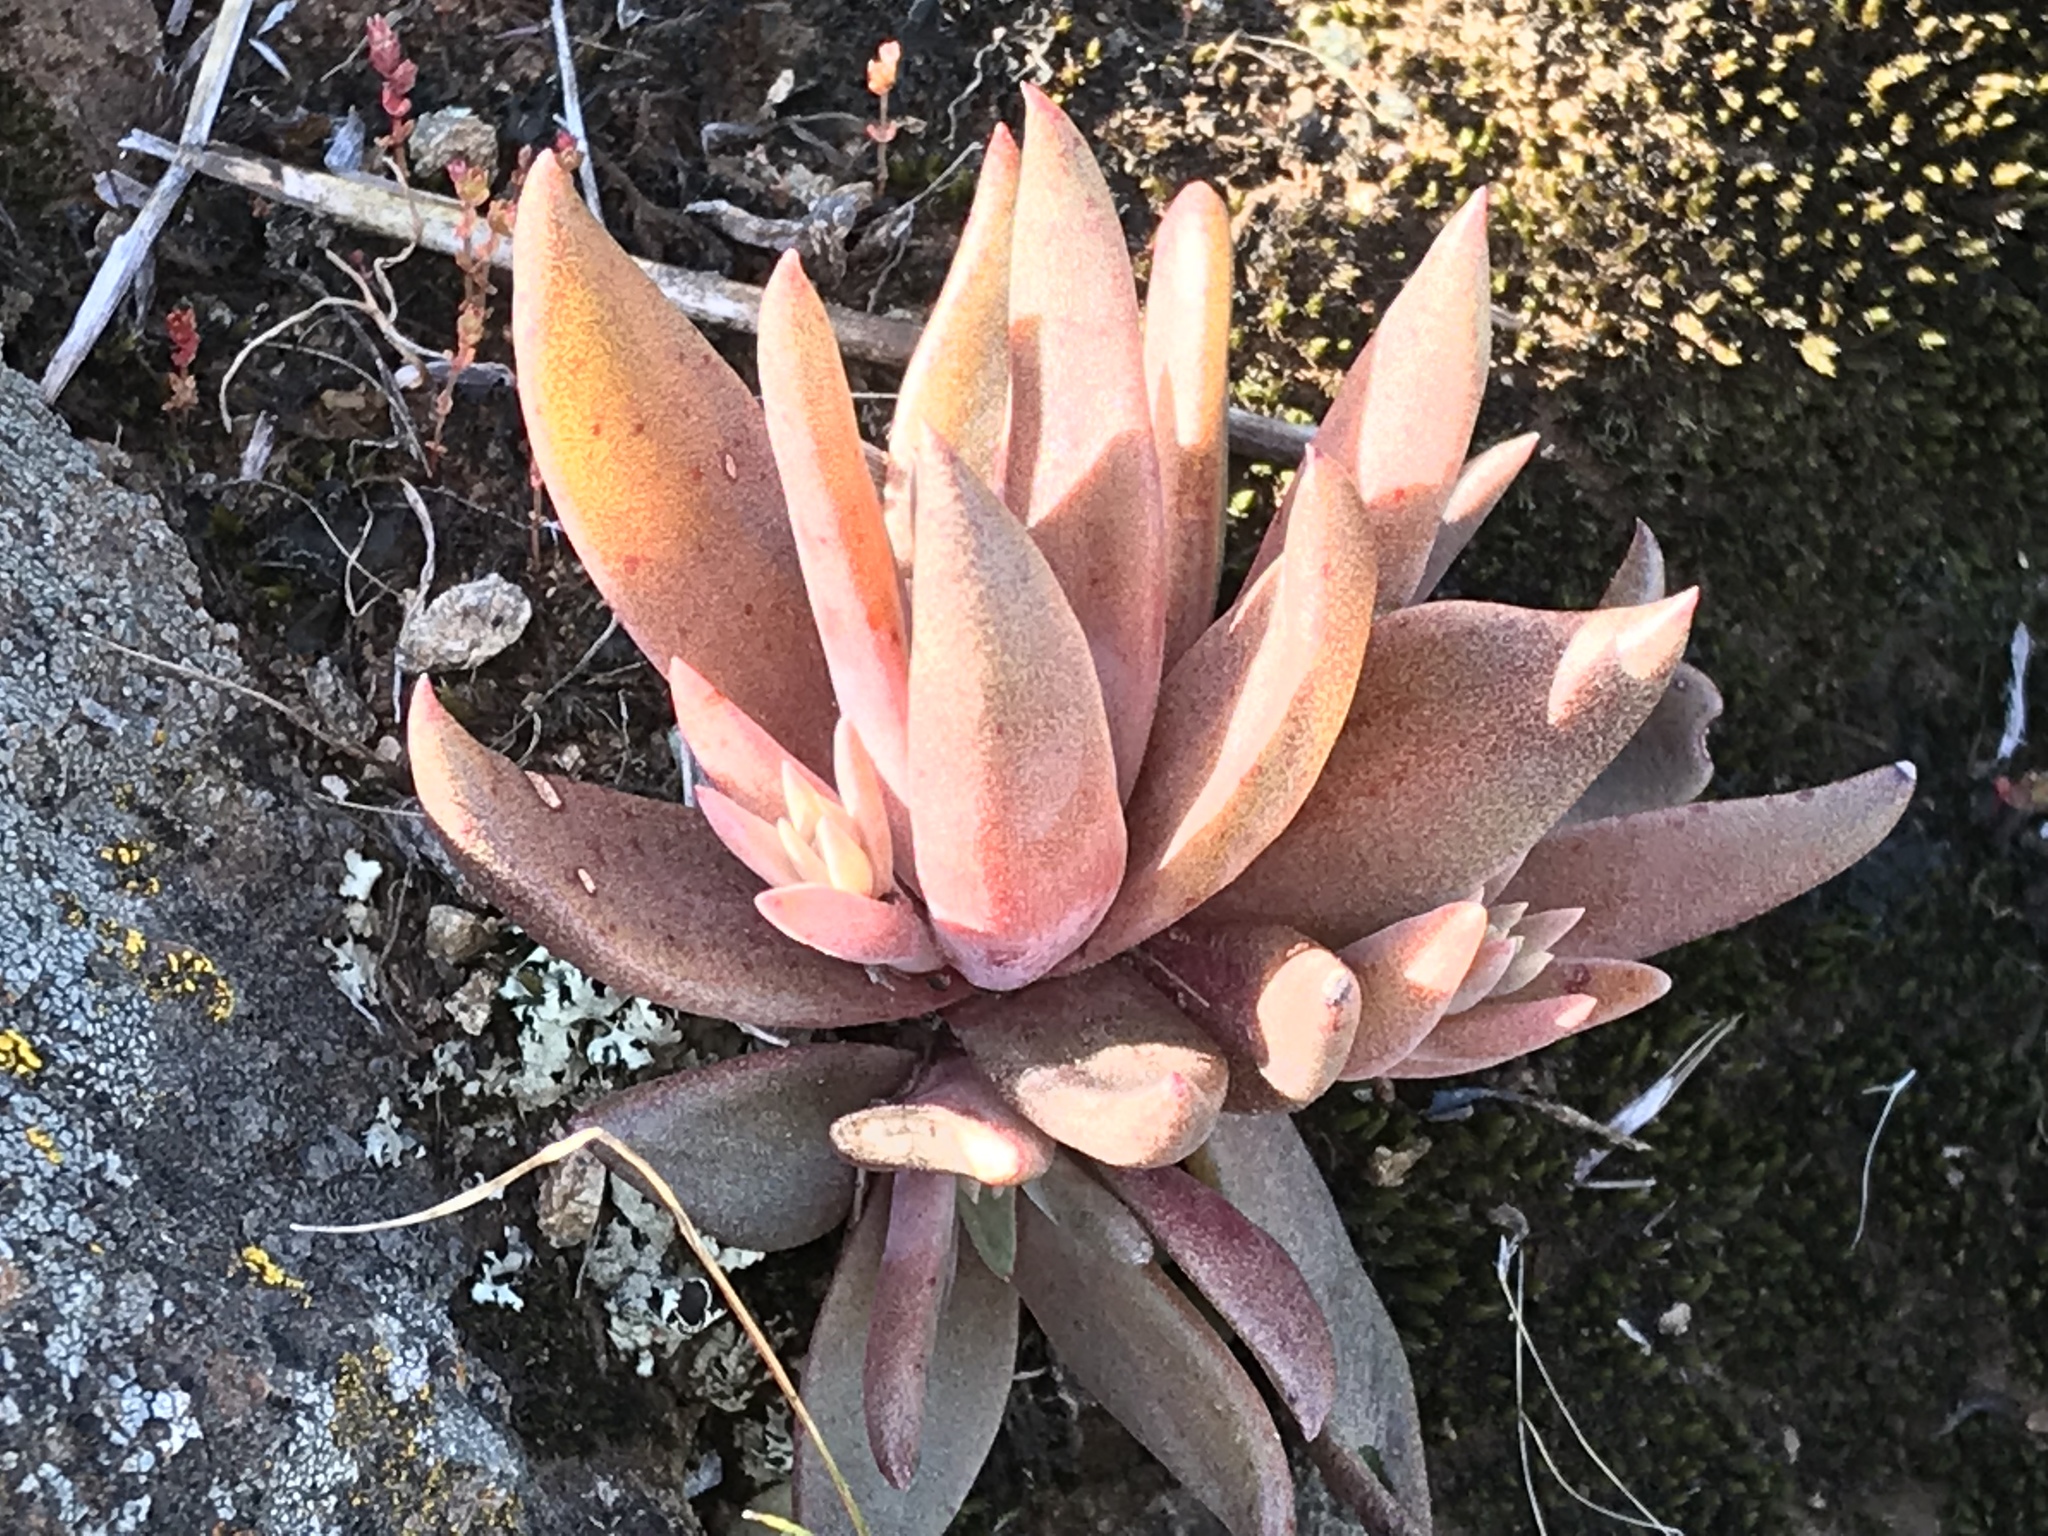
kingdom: Plantae
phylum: Tracheophyta
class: Magnoliopsida
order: Saxifragales
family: Crassulaceae
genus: Dudleya
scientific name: Dudleya abramsii
